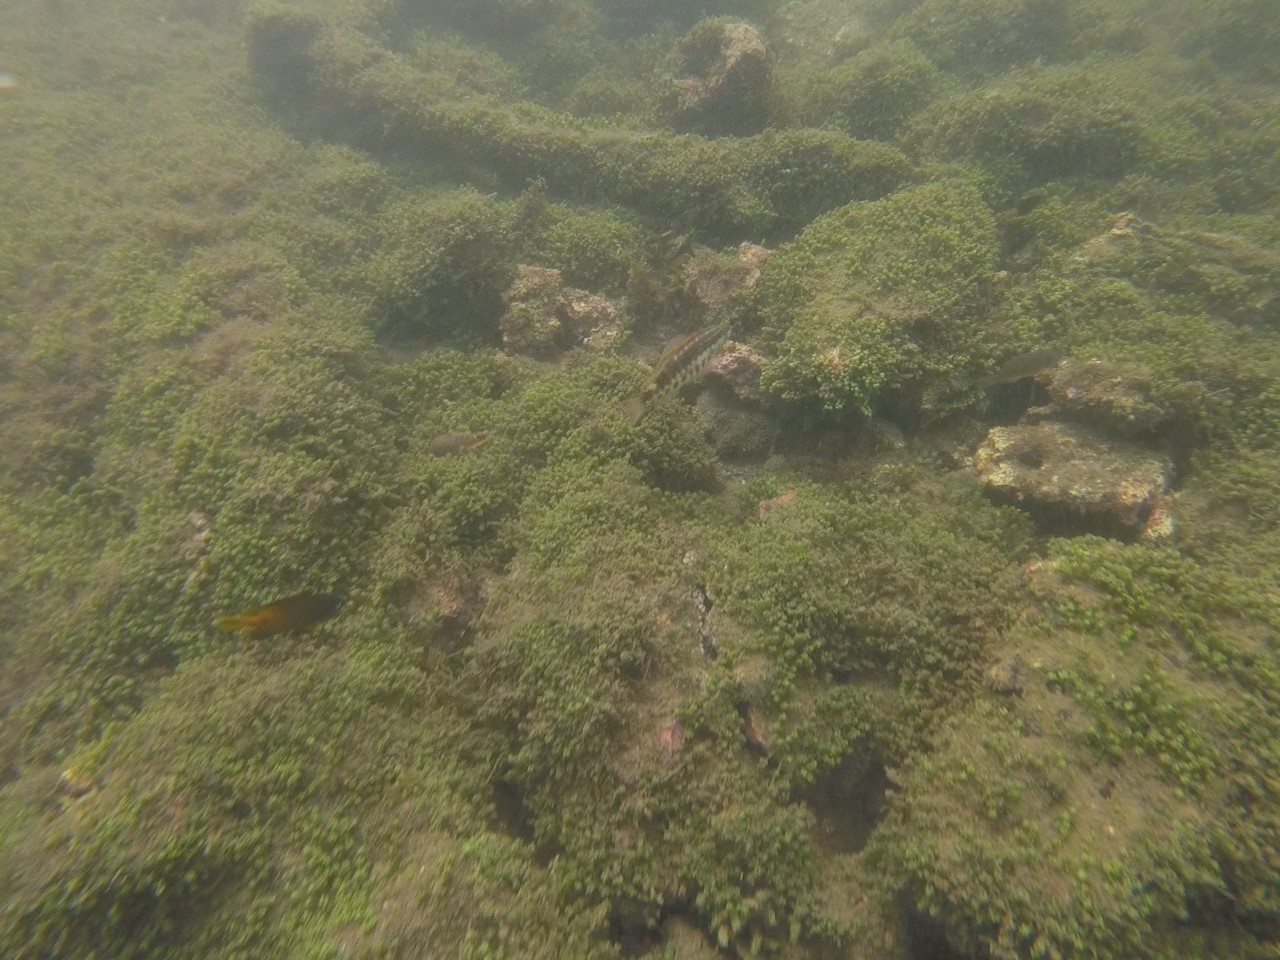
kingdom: Animalia
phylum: Chordata
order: Perciformes
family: Serranidae
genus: Serranus
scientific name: Serranus psittacinus
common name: Barred serrano
